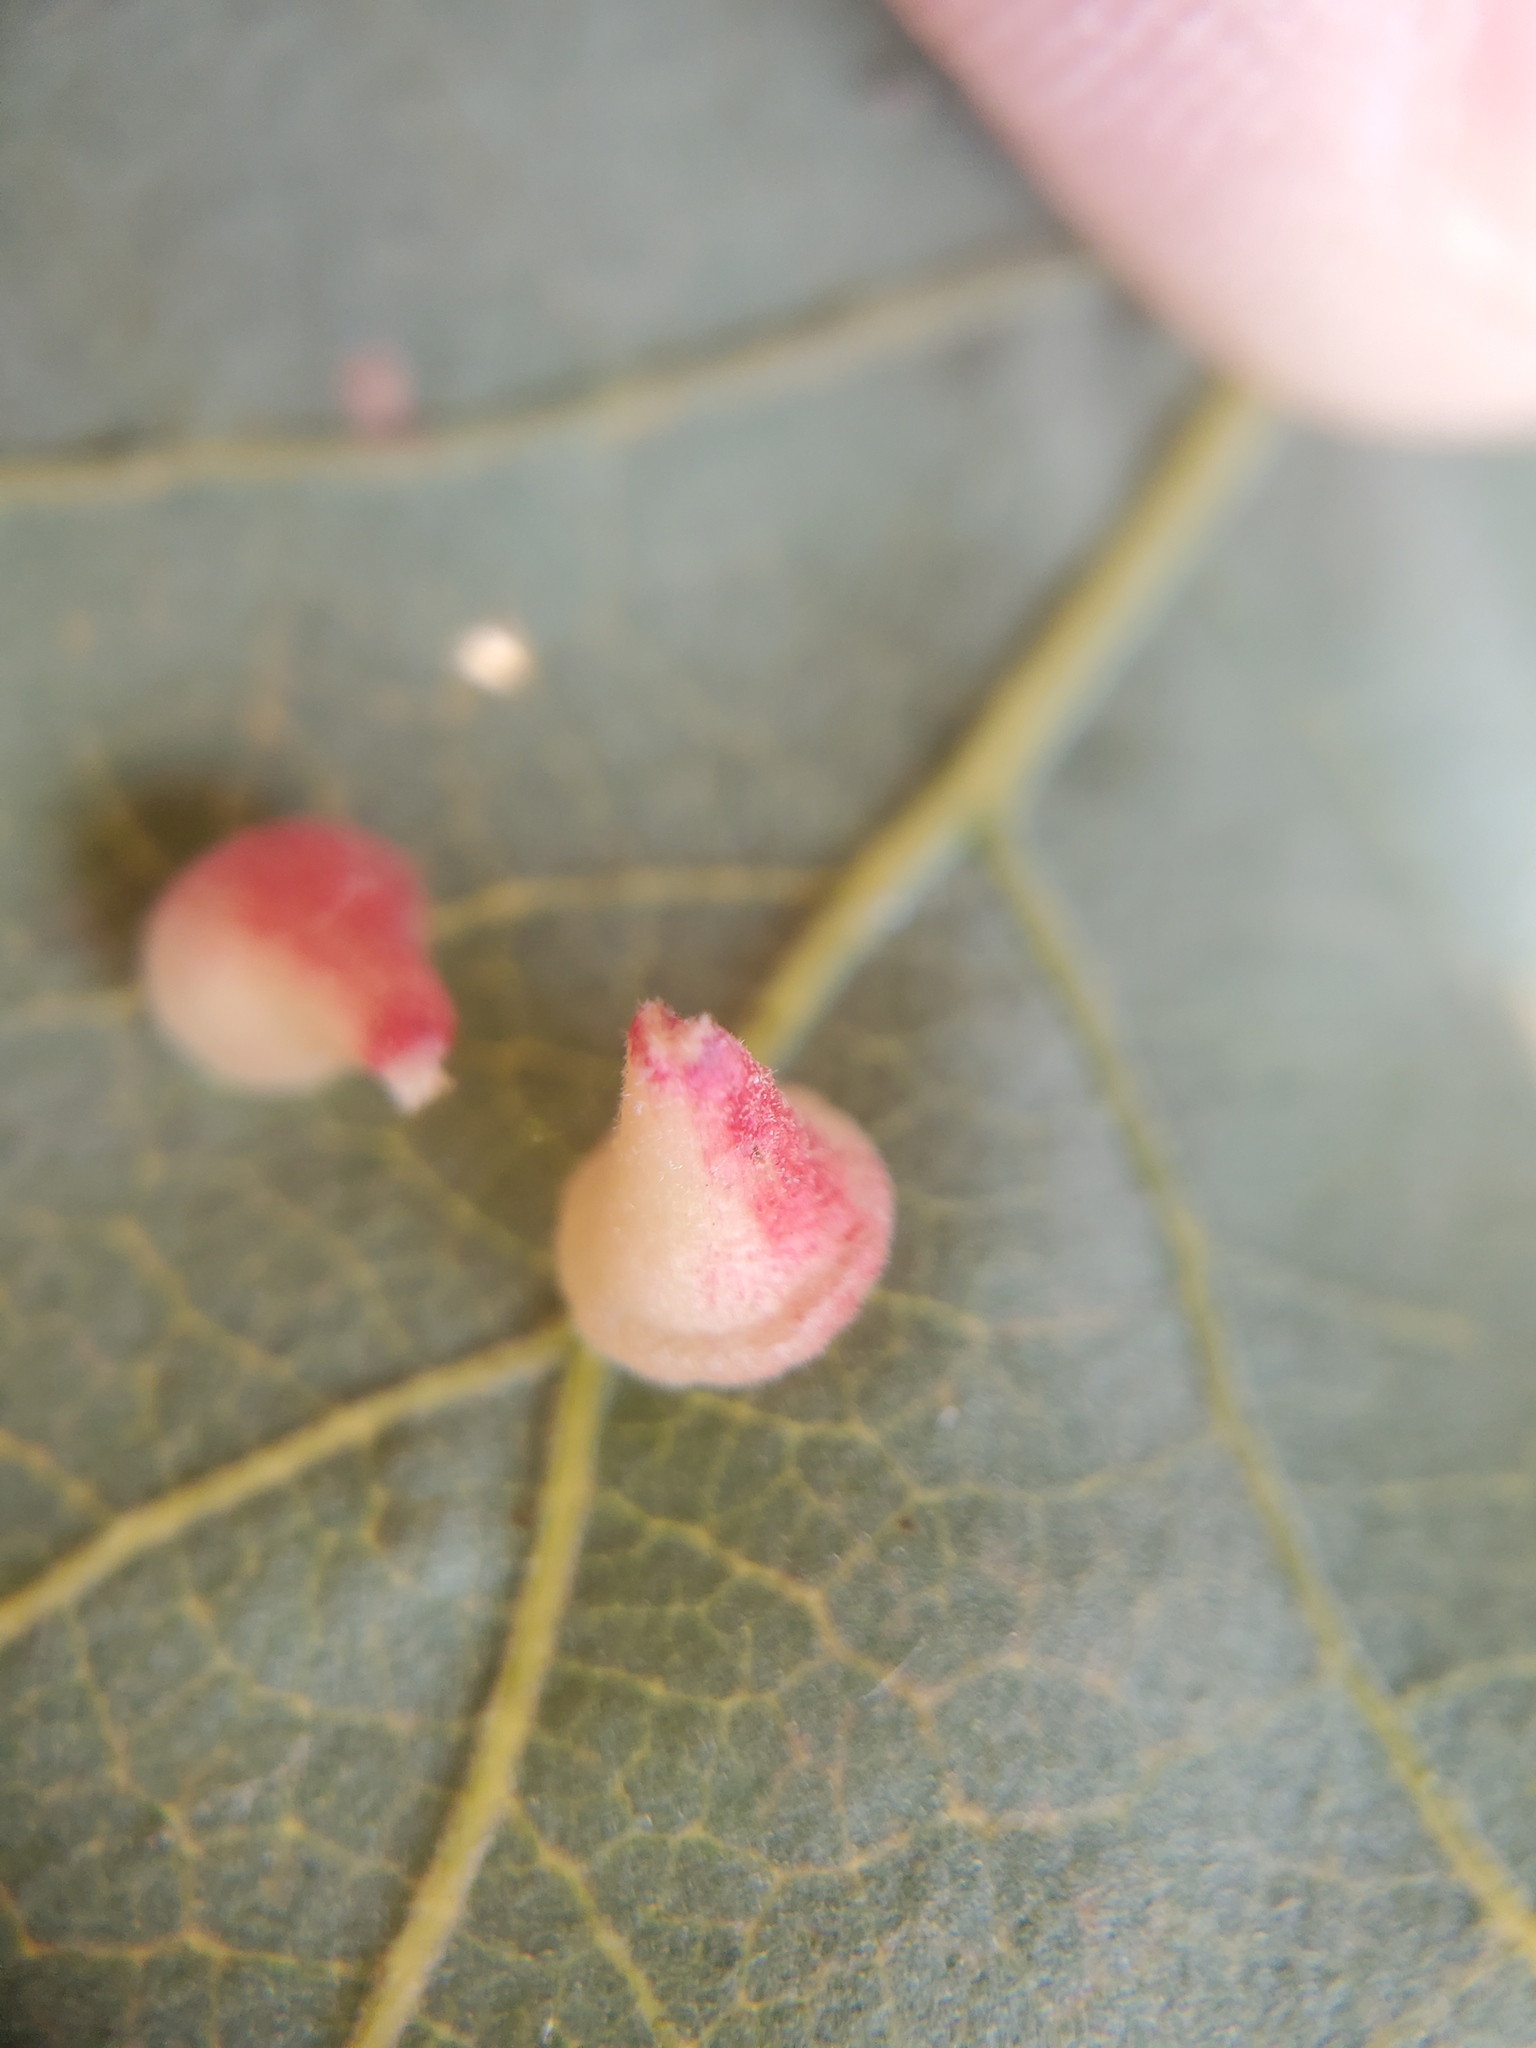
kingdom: Animalia
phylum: Arthropoda
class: Insecta
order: Hymenoptera
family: Cynipidae
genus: Andricus
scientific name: Andricus
